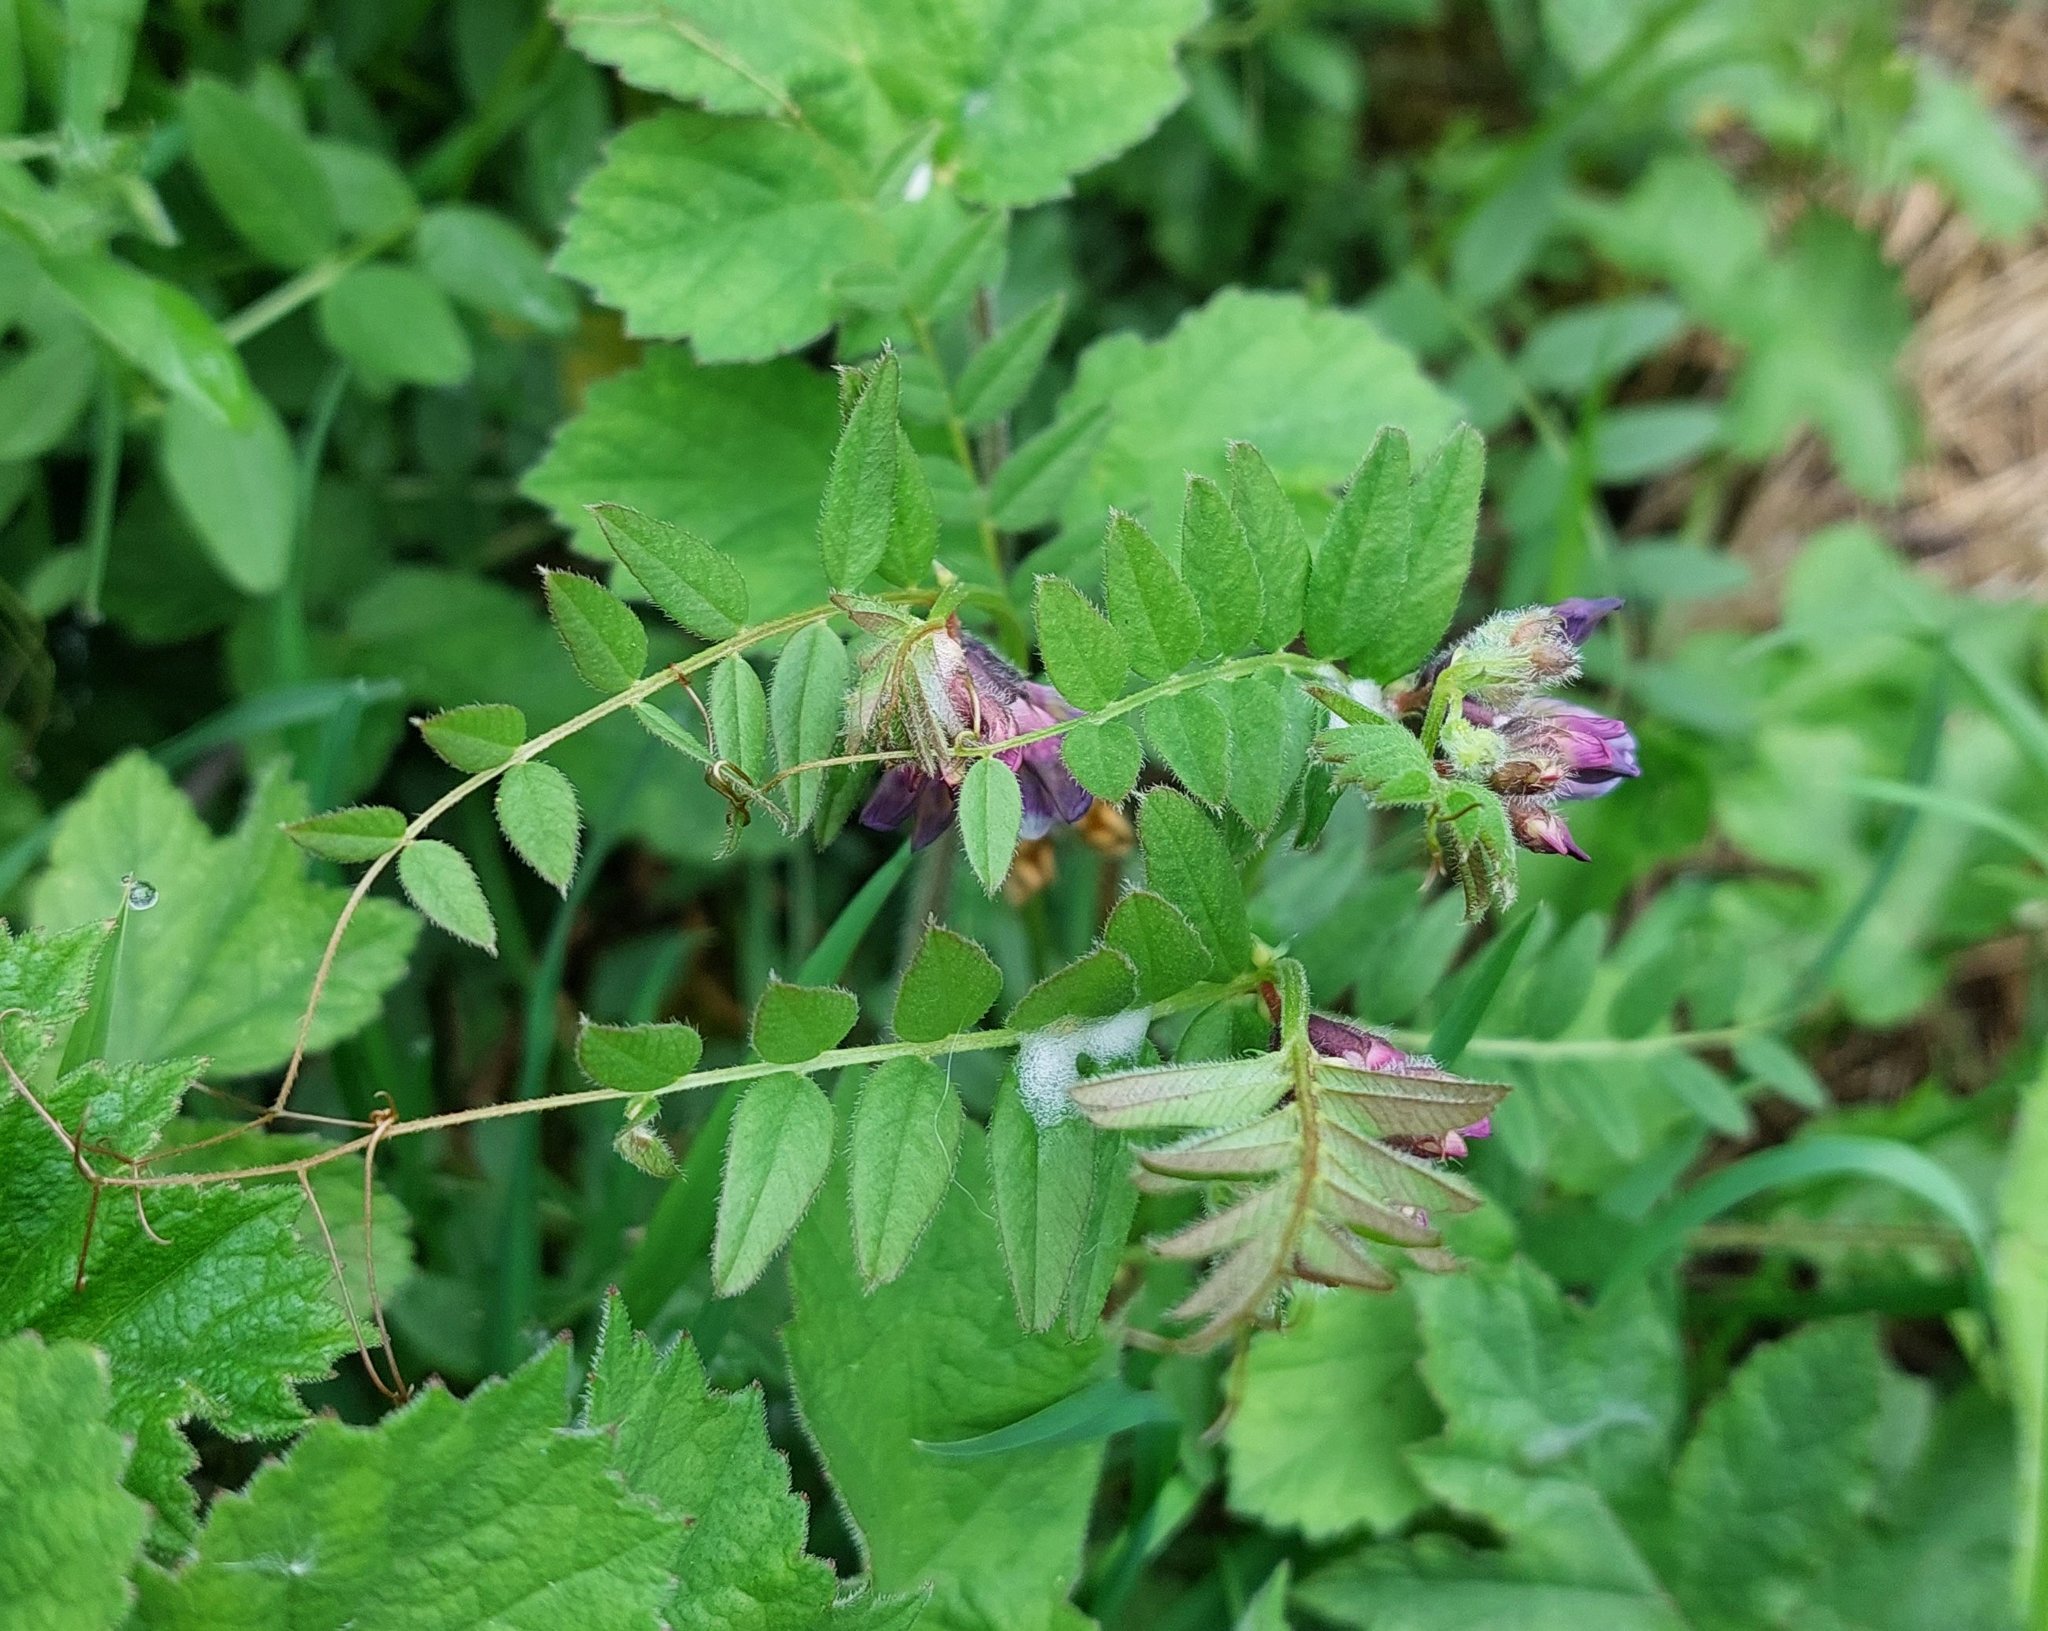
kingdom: Plantae
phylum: Tracheophyta
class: Magnoliopsida
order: Fabales
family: Fabaceae
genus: Vicia
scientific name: Vicia sepium
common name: Bush vetch
